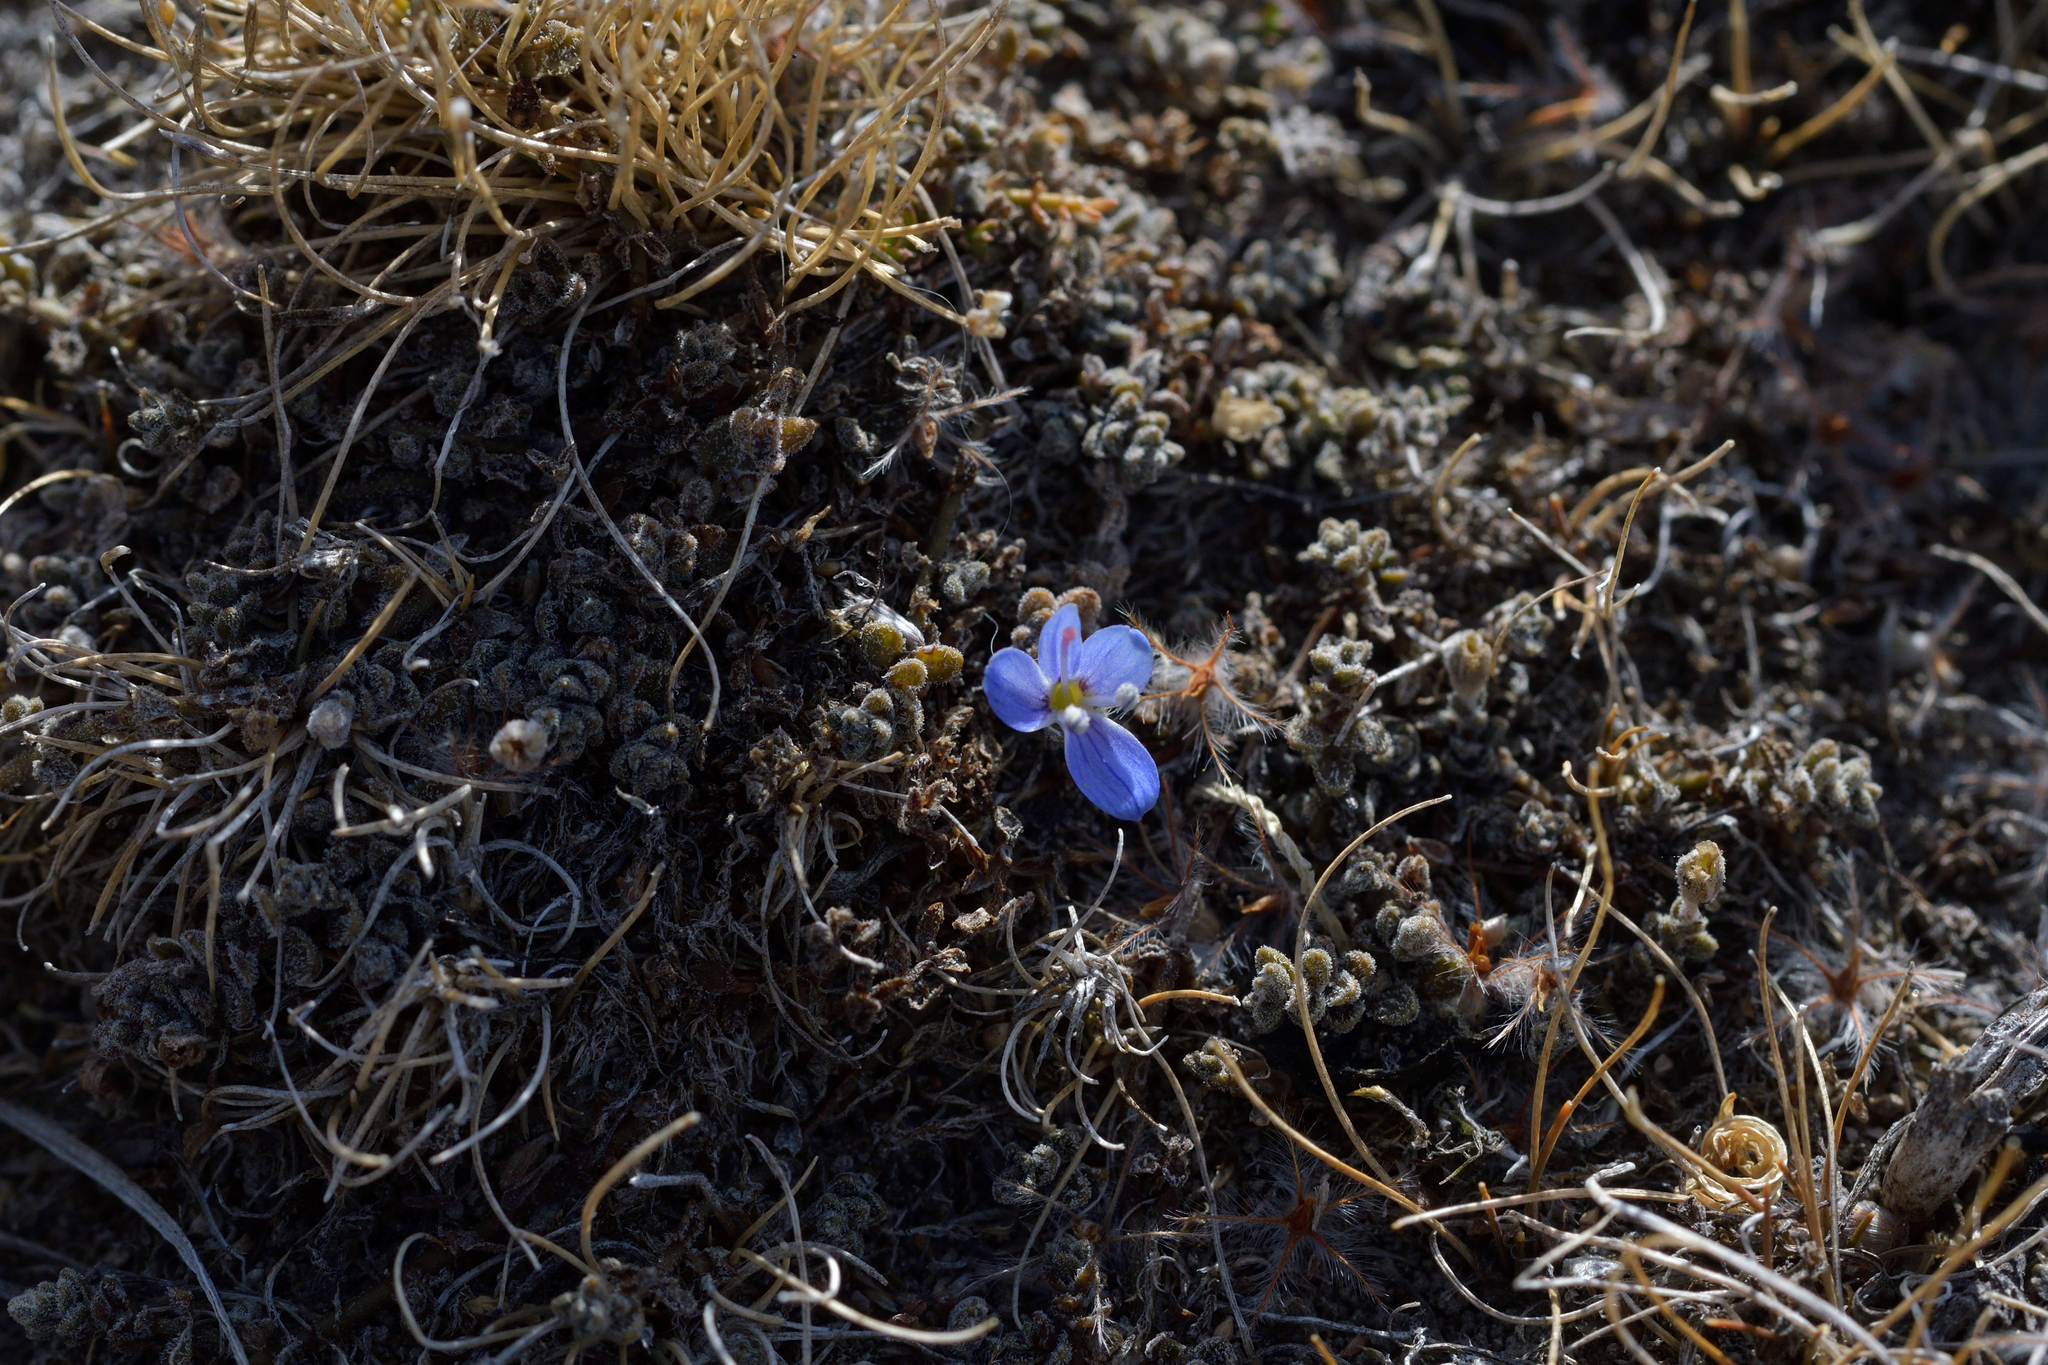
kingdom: Plantae
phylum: Tracheophyta
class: Magnoliopsida
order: Lamiales
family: Plantaginaceae
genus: Veronica
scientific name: Veronica lilliputiana
